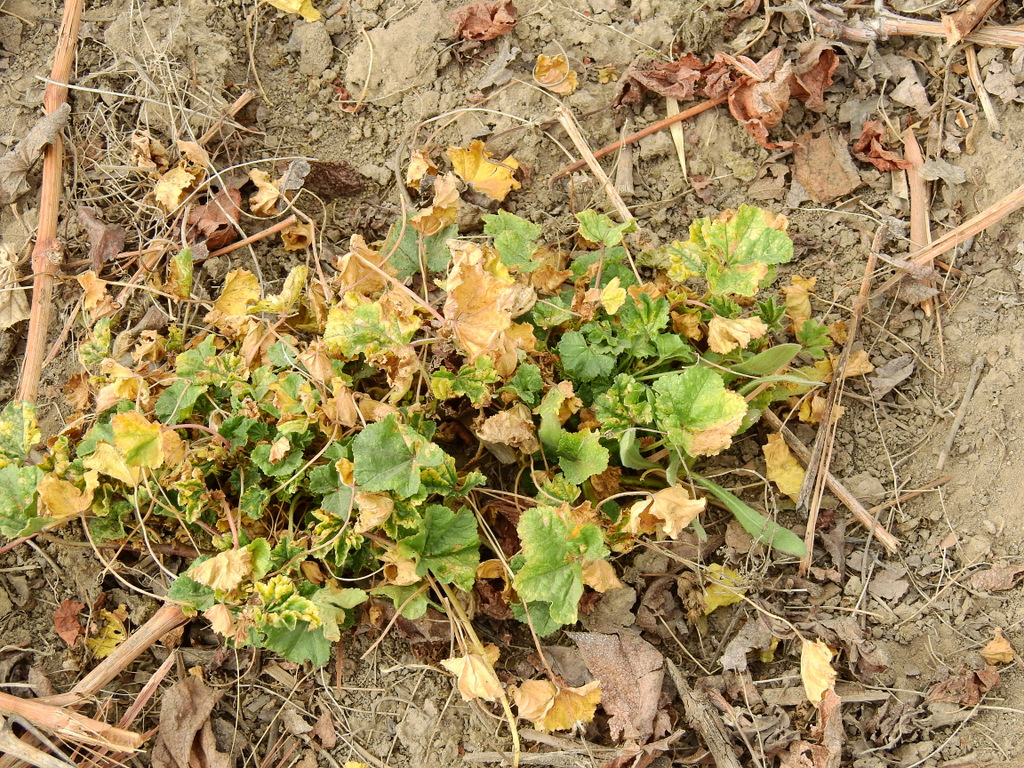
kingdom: Plantae
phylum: Tracheophyta
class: Magnoliopsida
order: Malvales
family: Malvaceae
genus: Malva
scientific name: Malva parviflora
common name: Least mallow
